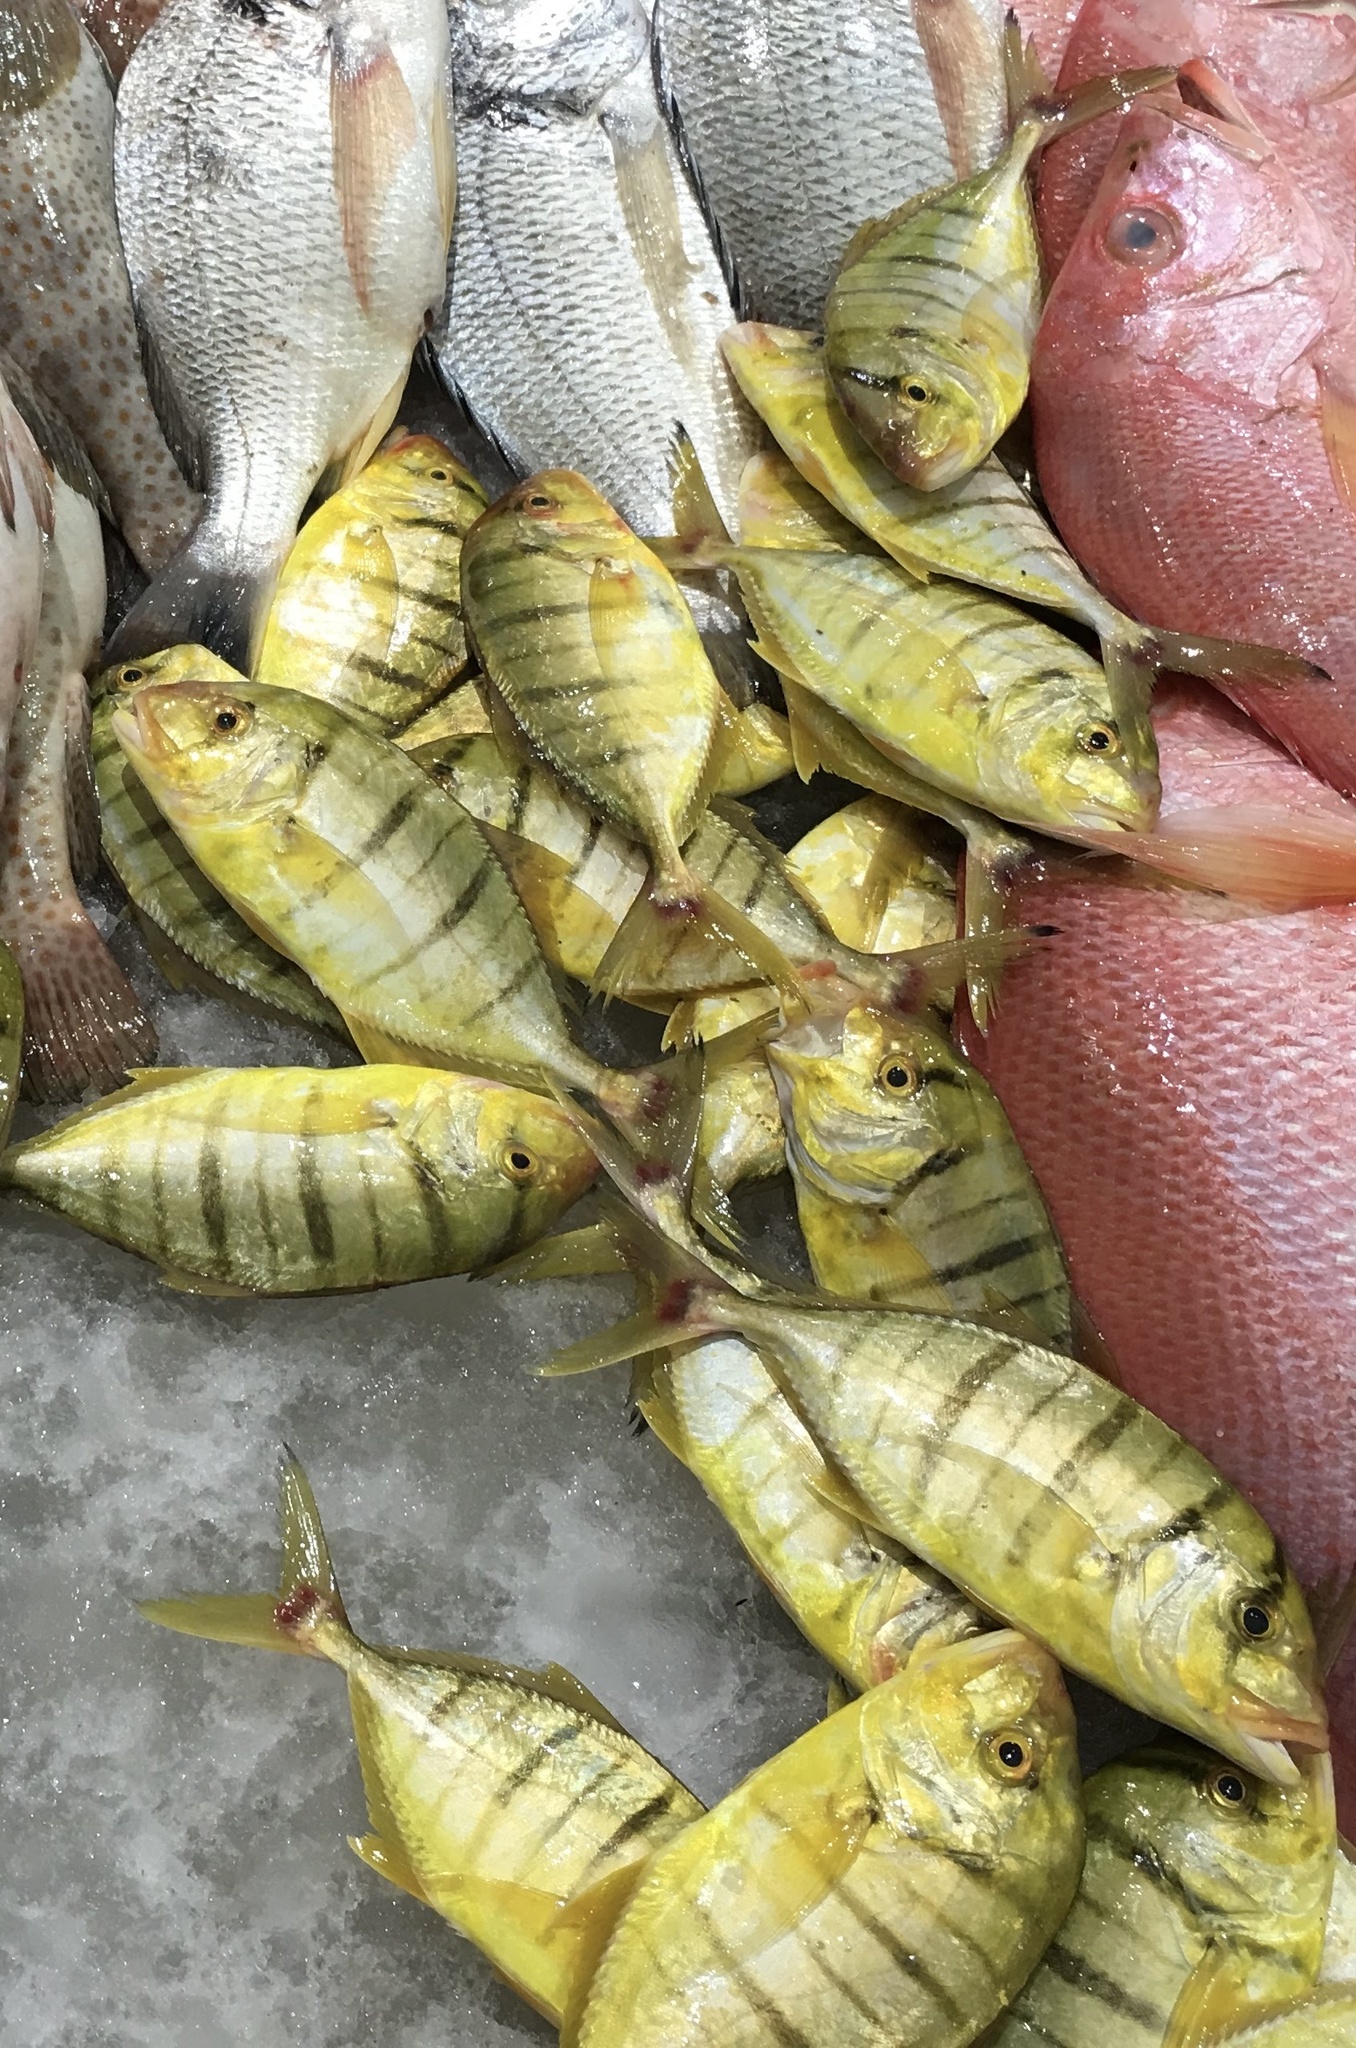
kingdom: Animalia
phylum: Chordata
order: Perciformes
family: Carangidae
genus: Gnathanodon
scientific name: Gnathanodon speciosus
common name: Golden toothless trevally
